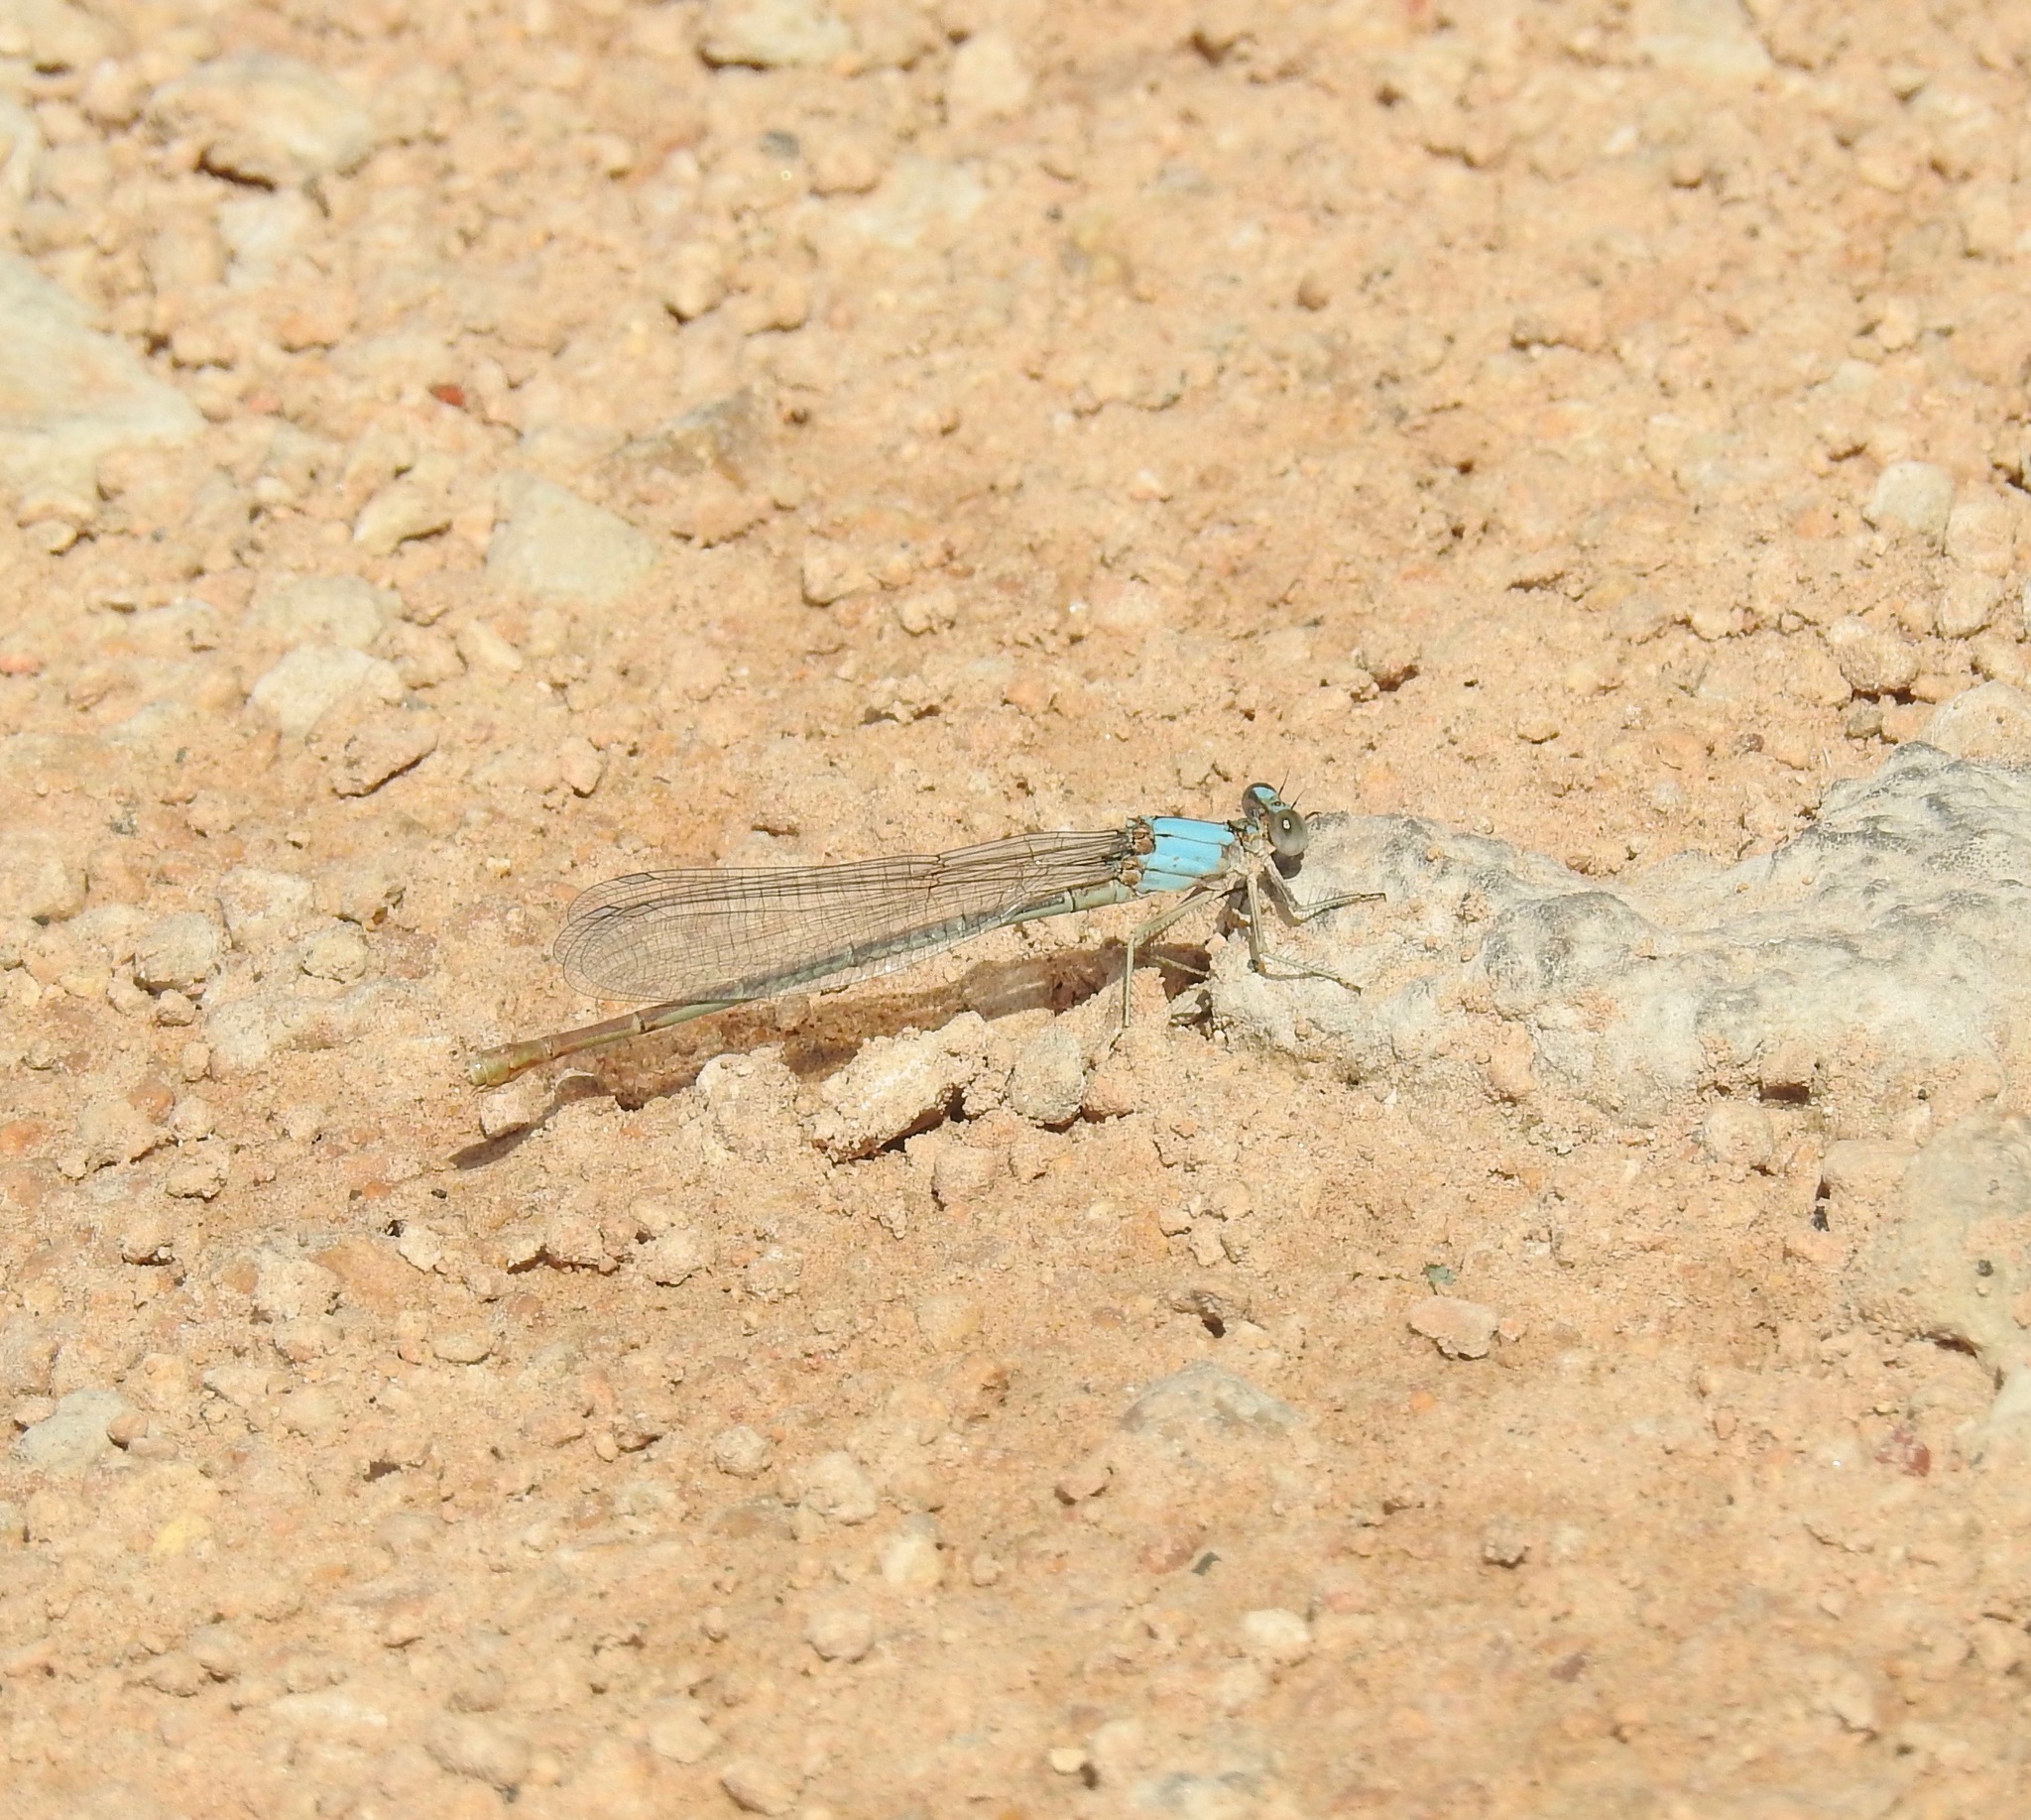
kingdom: Animalia
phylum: Arthropoda
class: Insecta
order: Odonata
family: Coenagrionidae
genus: Argia
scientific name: Argia moesta
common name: Powdered dancer
